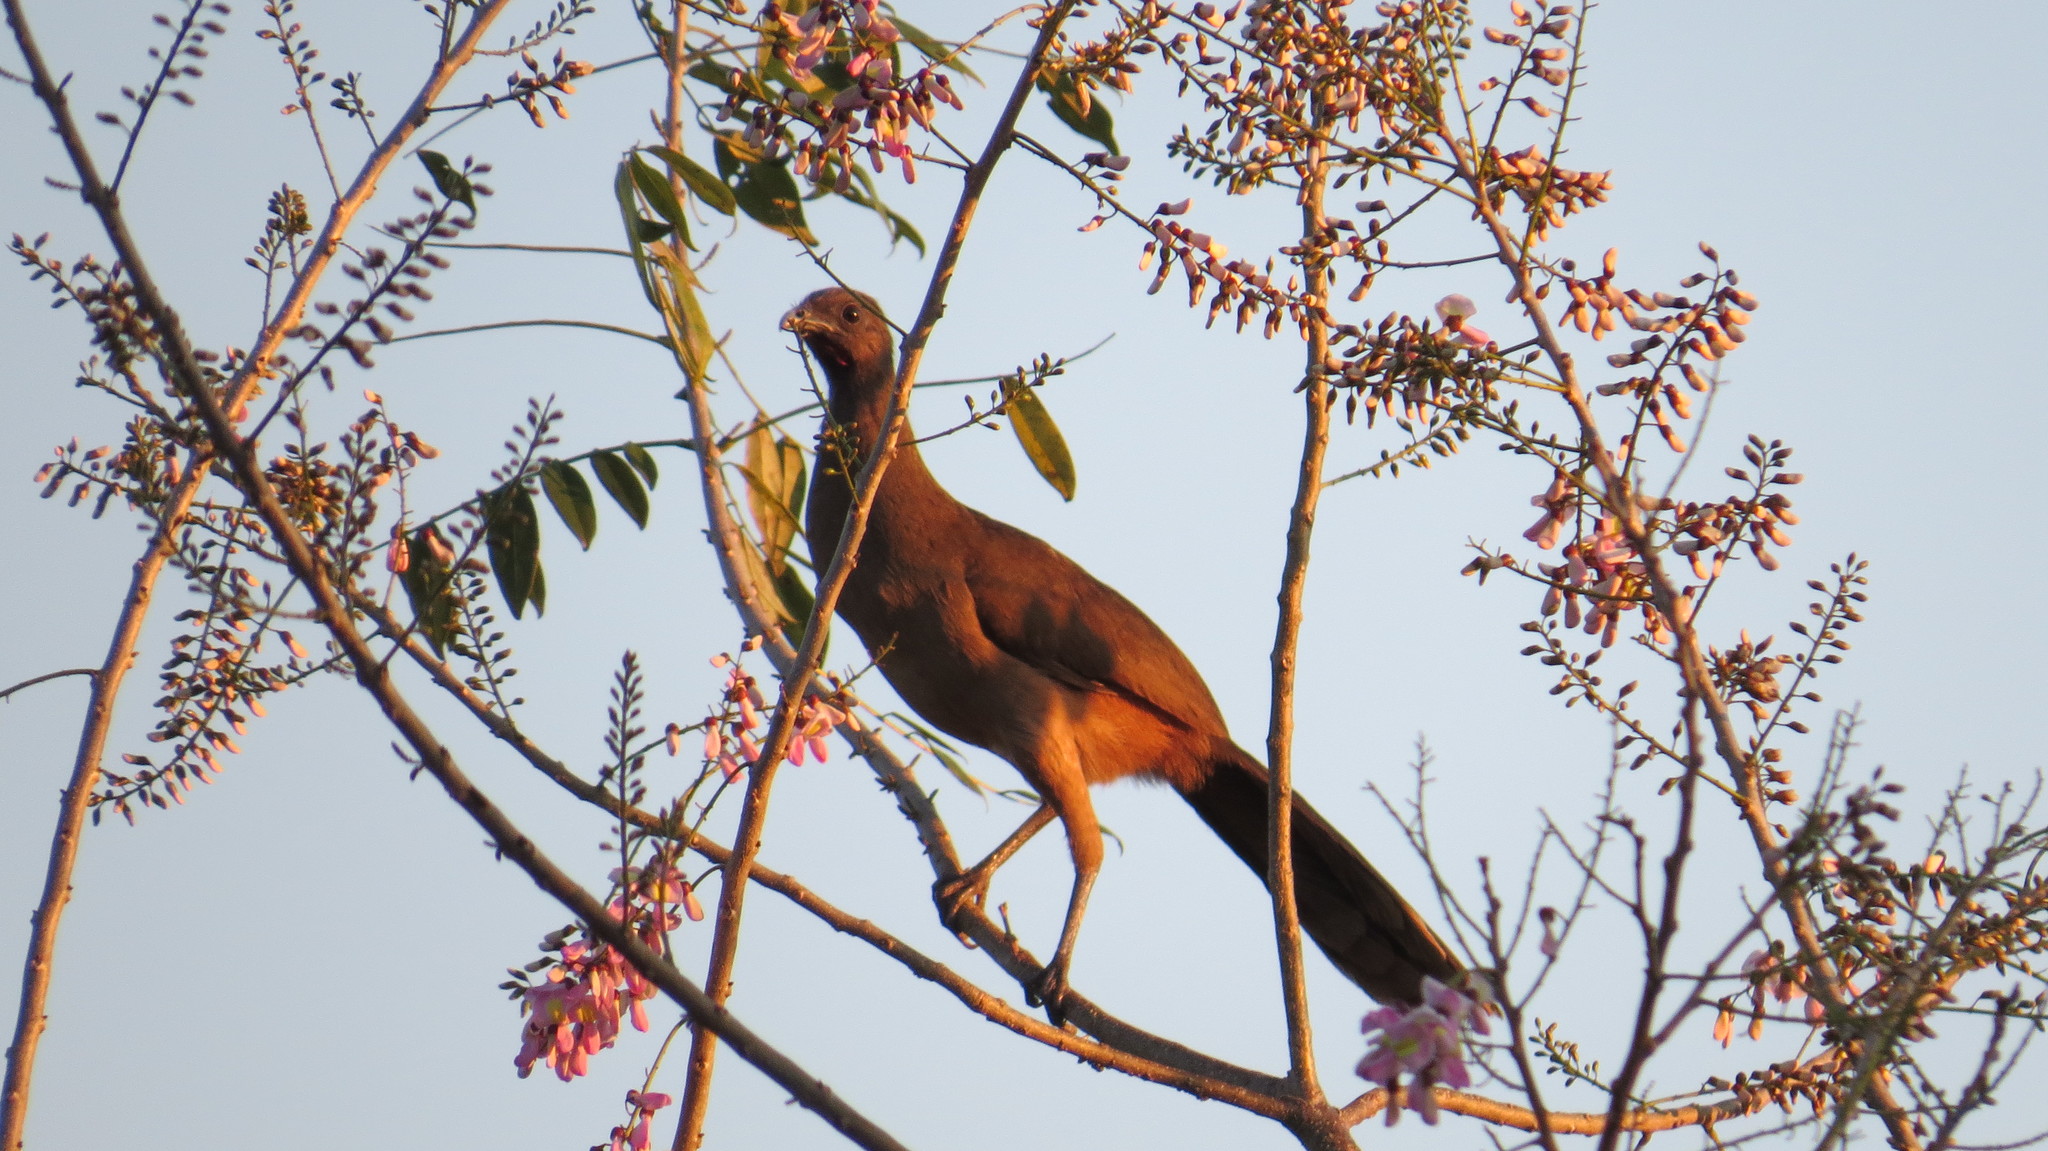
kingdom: Animalia
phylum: Chordata
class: Aves
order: Galliformes
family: Cracidae
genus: Ortalis
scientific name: Ortalis vetula
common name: Plain chachalaca
